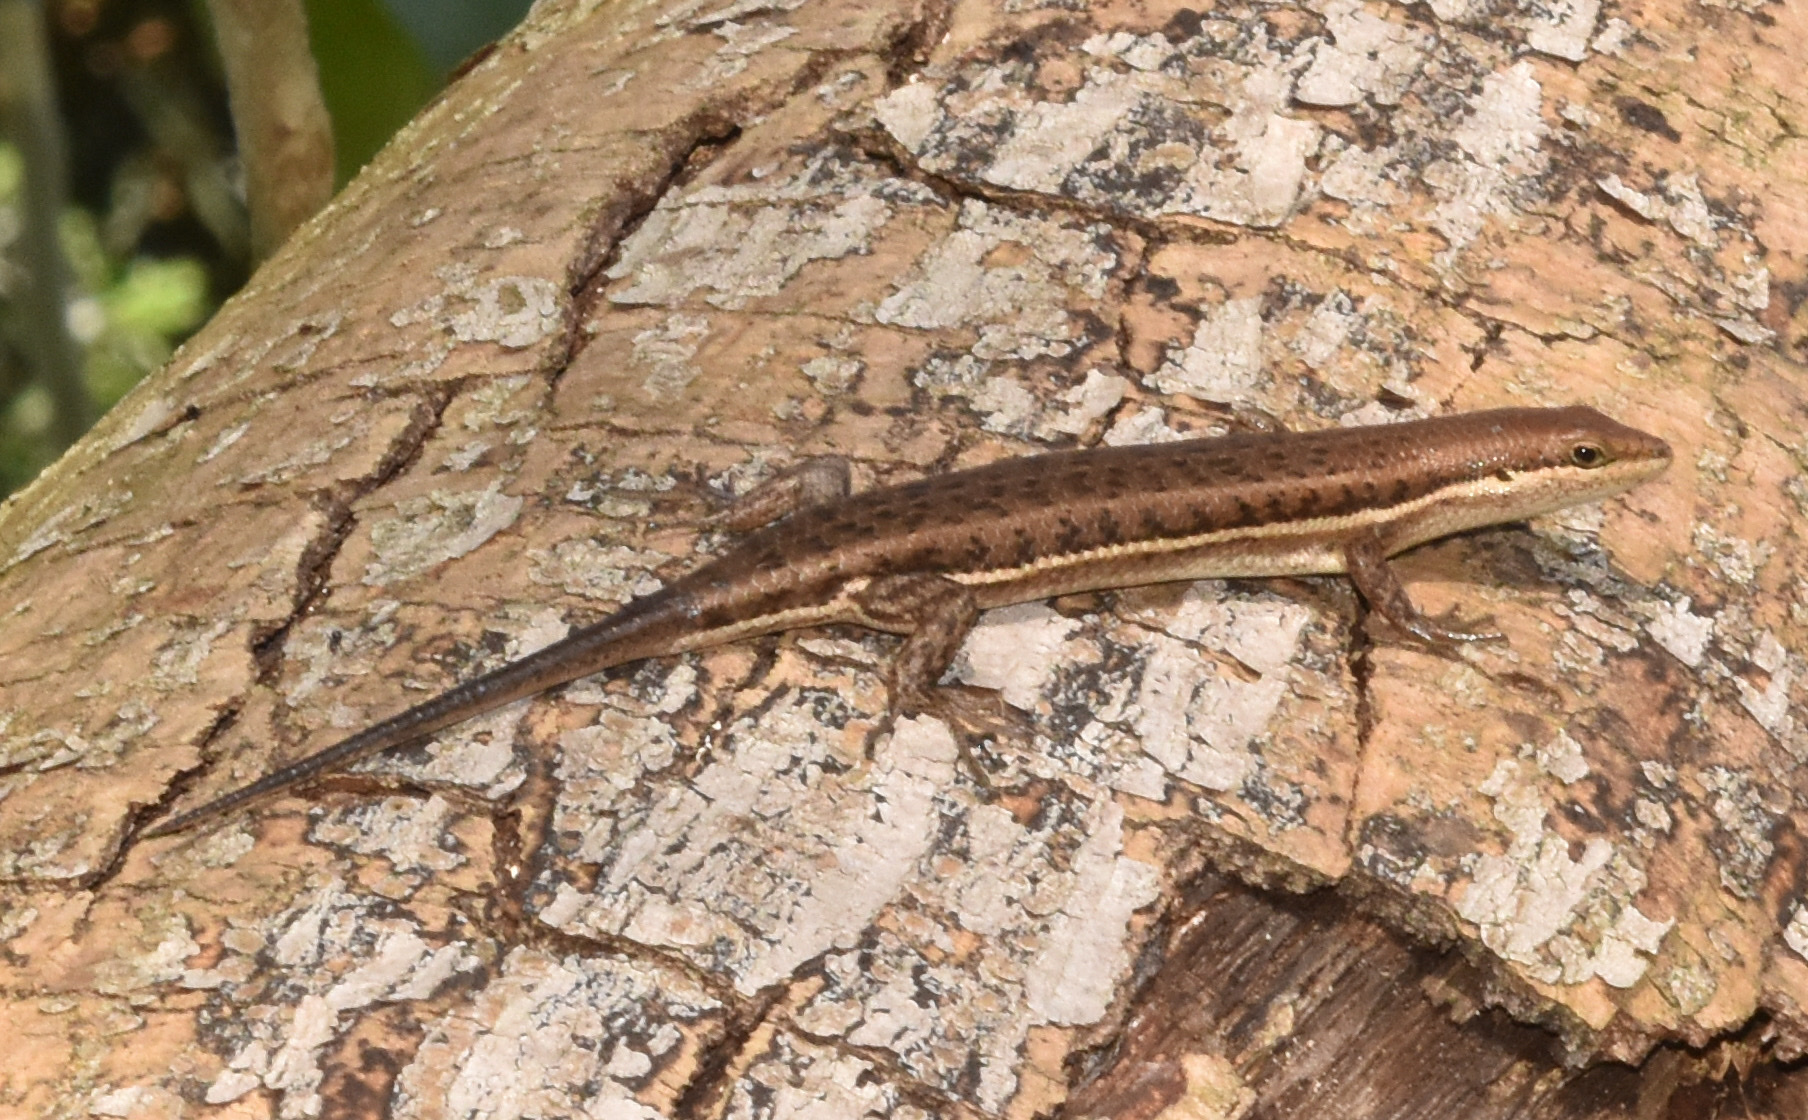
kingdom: Animalia
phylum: Chordata
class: Squamata
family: Scincidae
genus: Trachylepis
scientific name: Trachylepis varia
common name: Eastern variable skink
